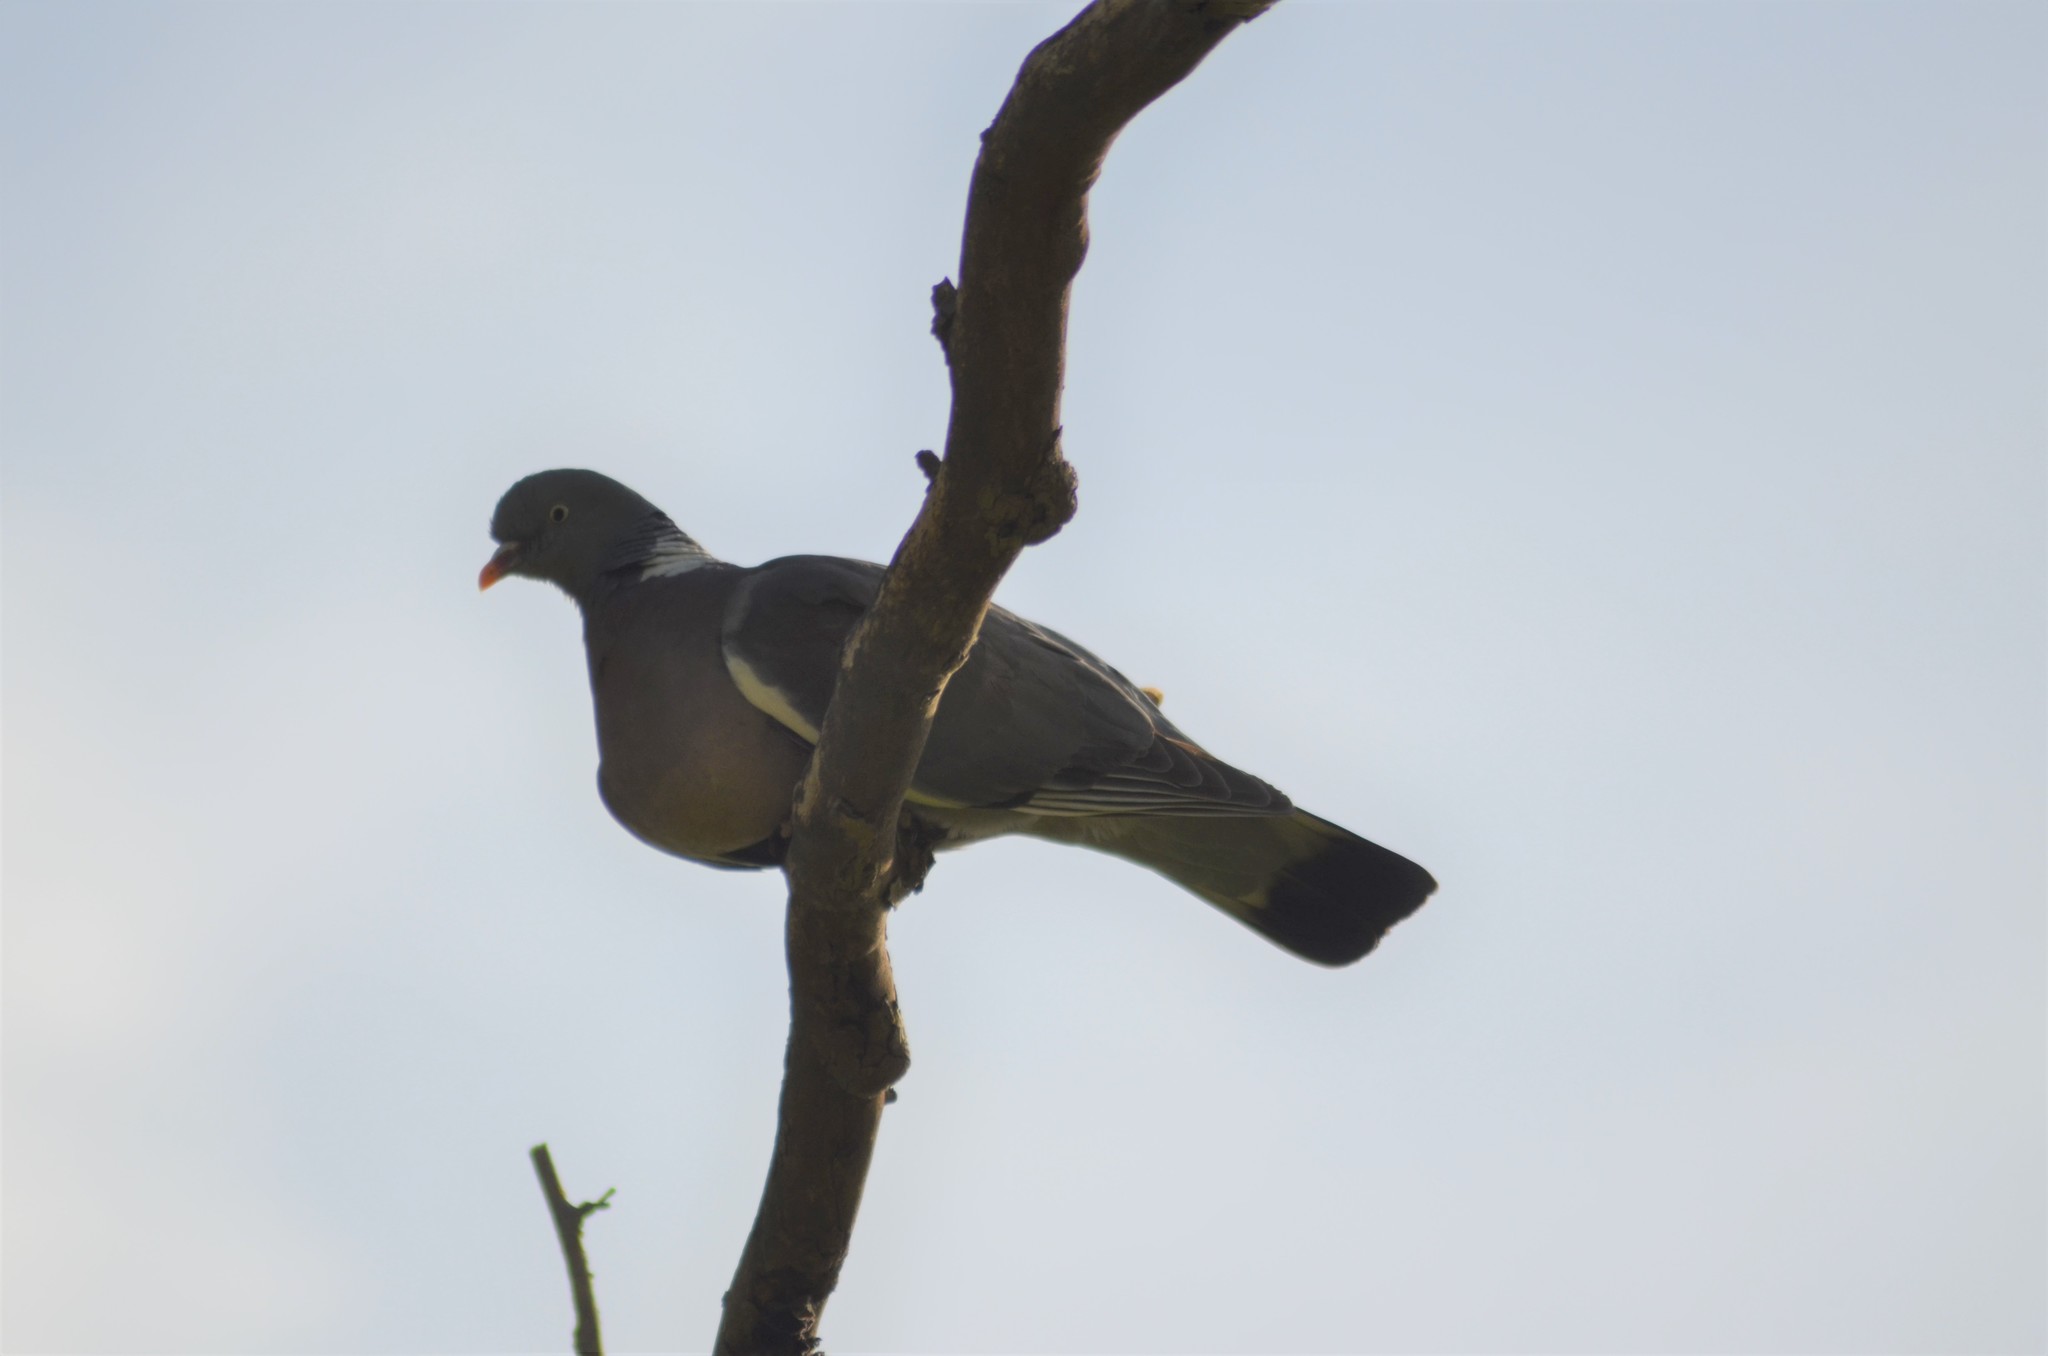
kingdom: Animalia
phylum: Chordata
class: Aves
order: Columbiformes
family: Columbidae
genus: Columba
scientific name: Columba palumbus
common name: Common wood pigeon
